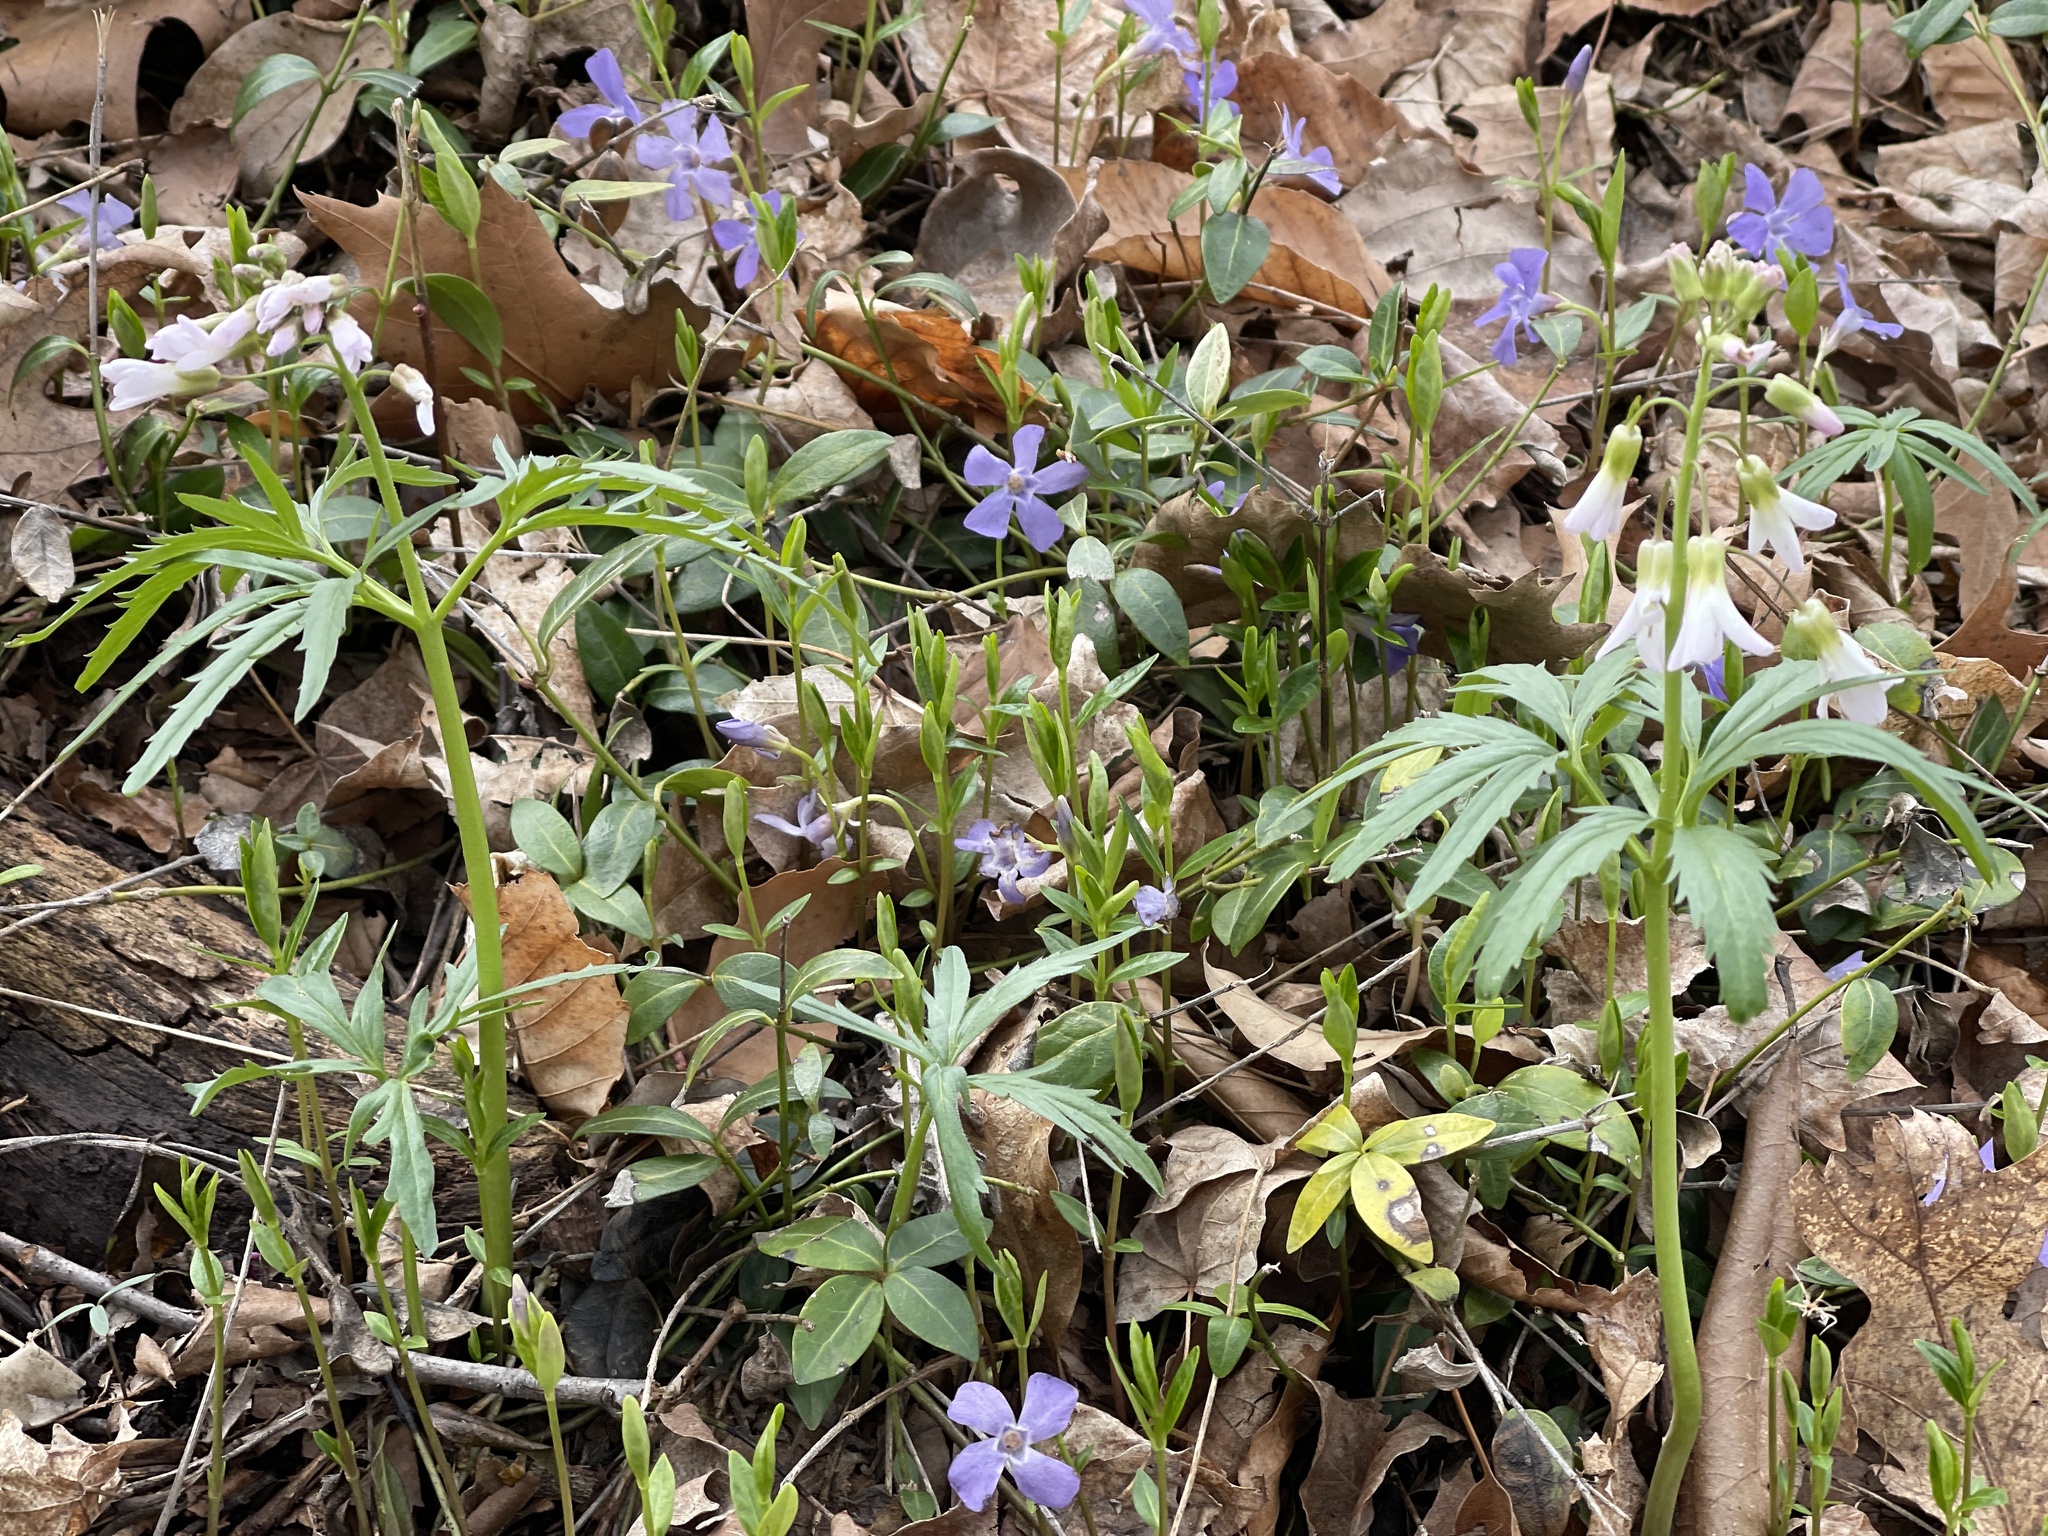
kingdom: Plantae
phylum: Tracheophyta
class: Magnoliopsida
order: Brassicales
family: Brassicaceae
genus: Cardamine
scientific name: Cardamine concatenata
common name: Cut-leaf toothcup
